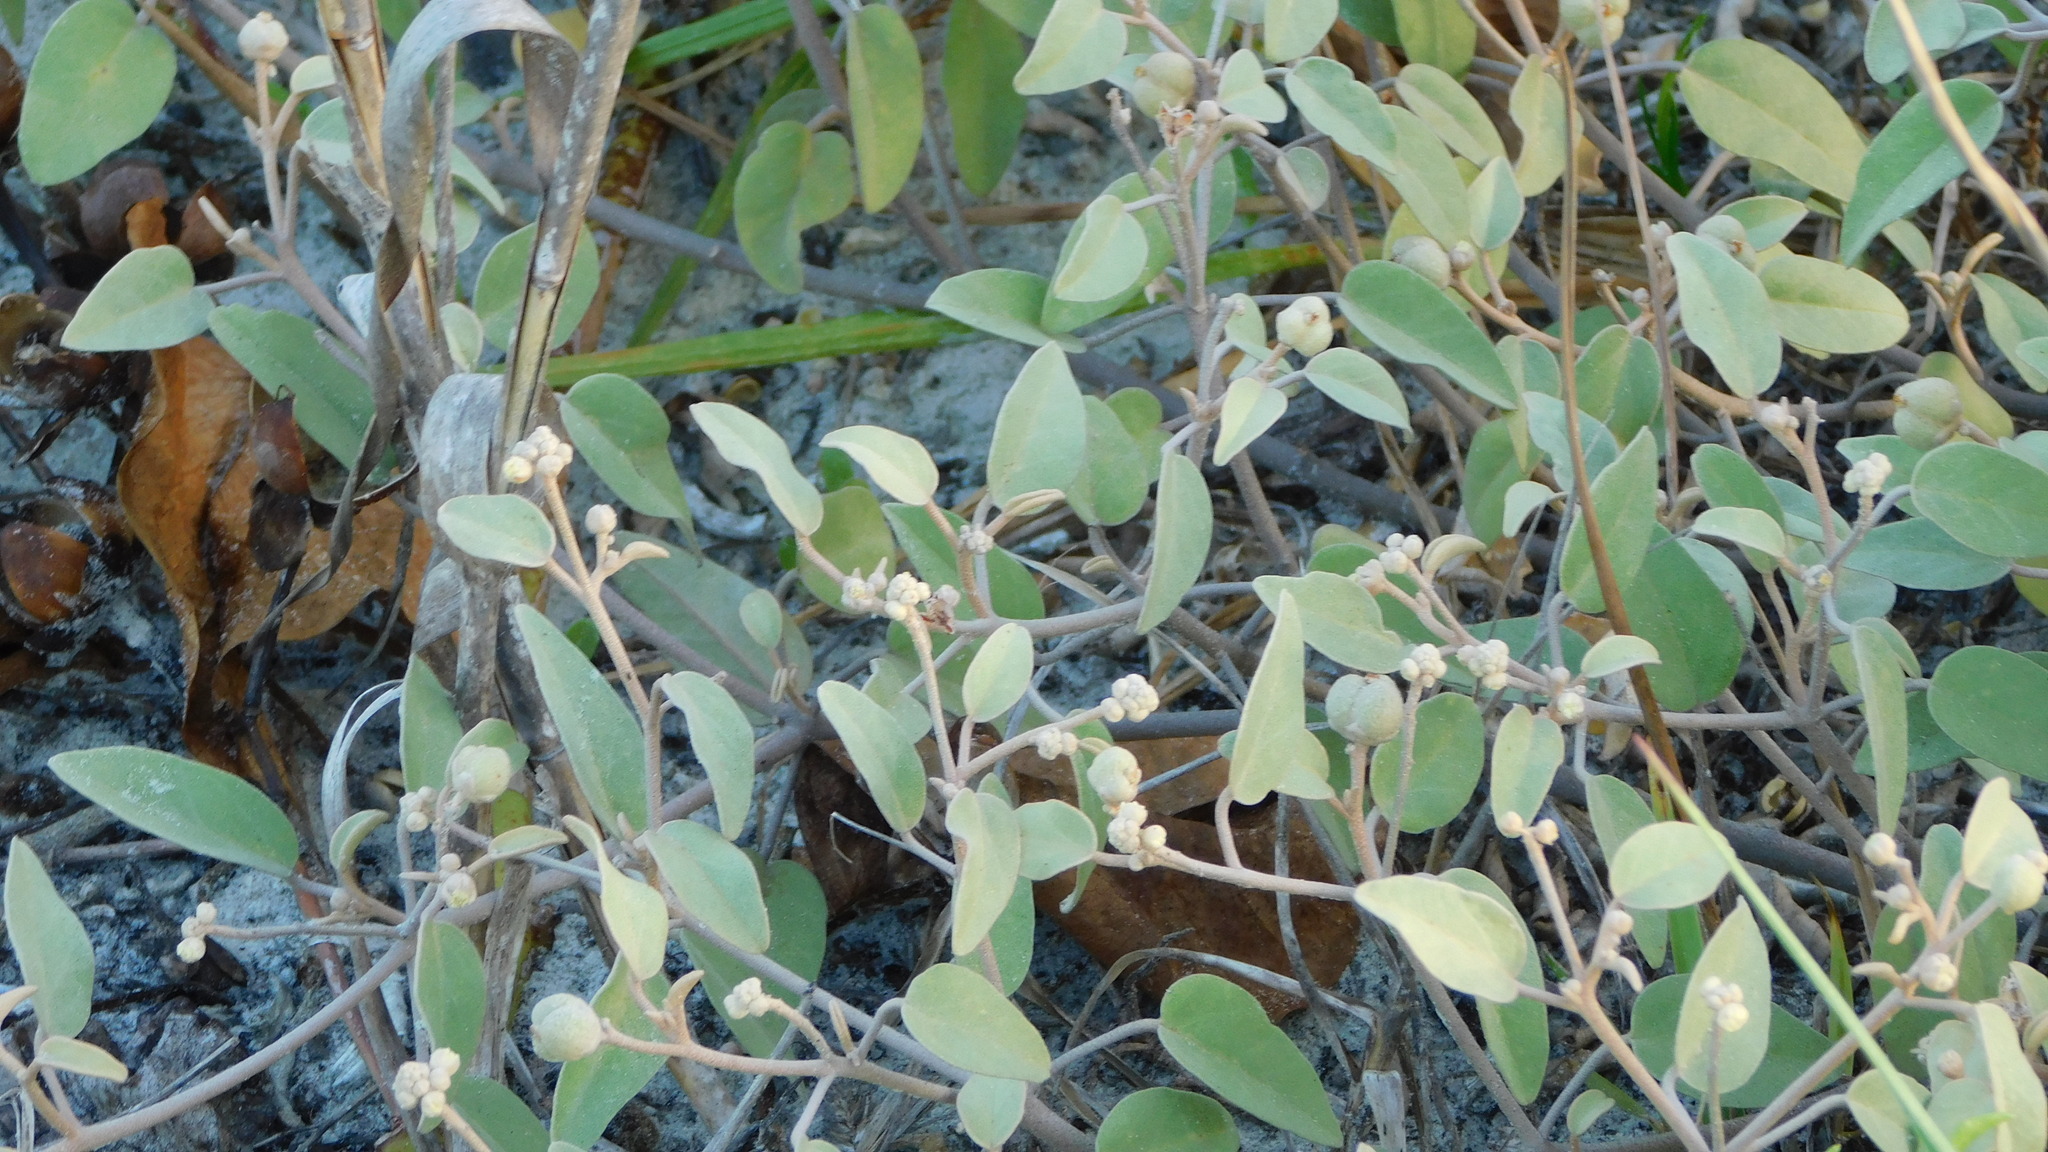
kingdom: Plantae
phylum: Tracheophyta
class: Magnoliopsida
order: Malpighiales
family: Euphorbiaceae
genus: Croton
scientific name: Croton punctatus
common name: Beach-tea
